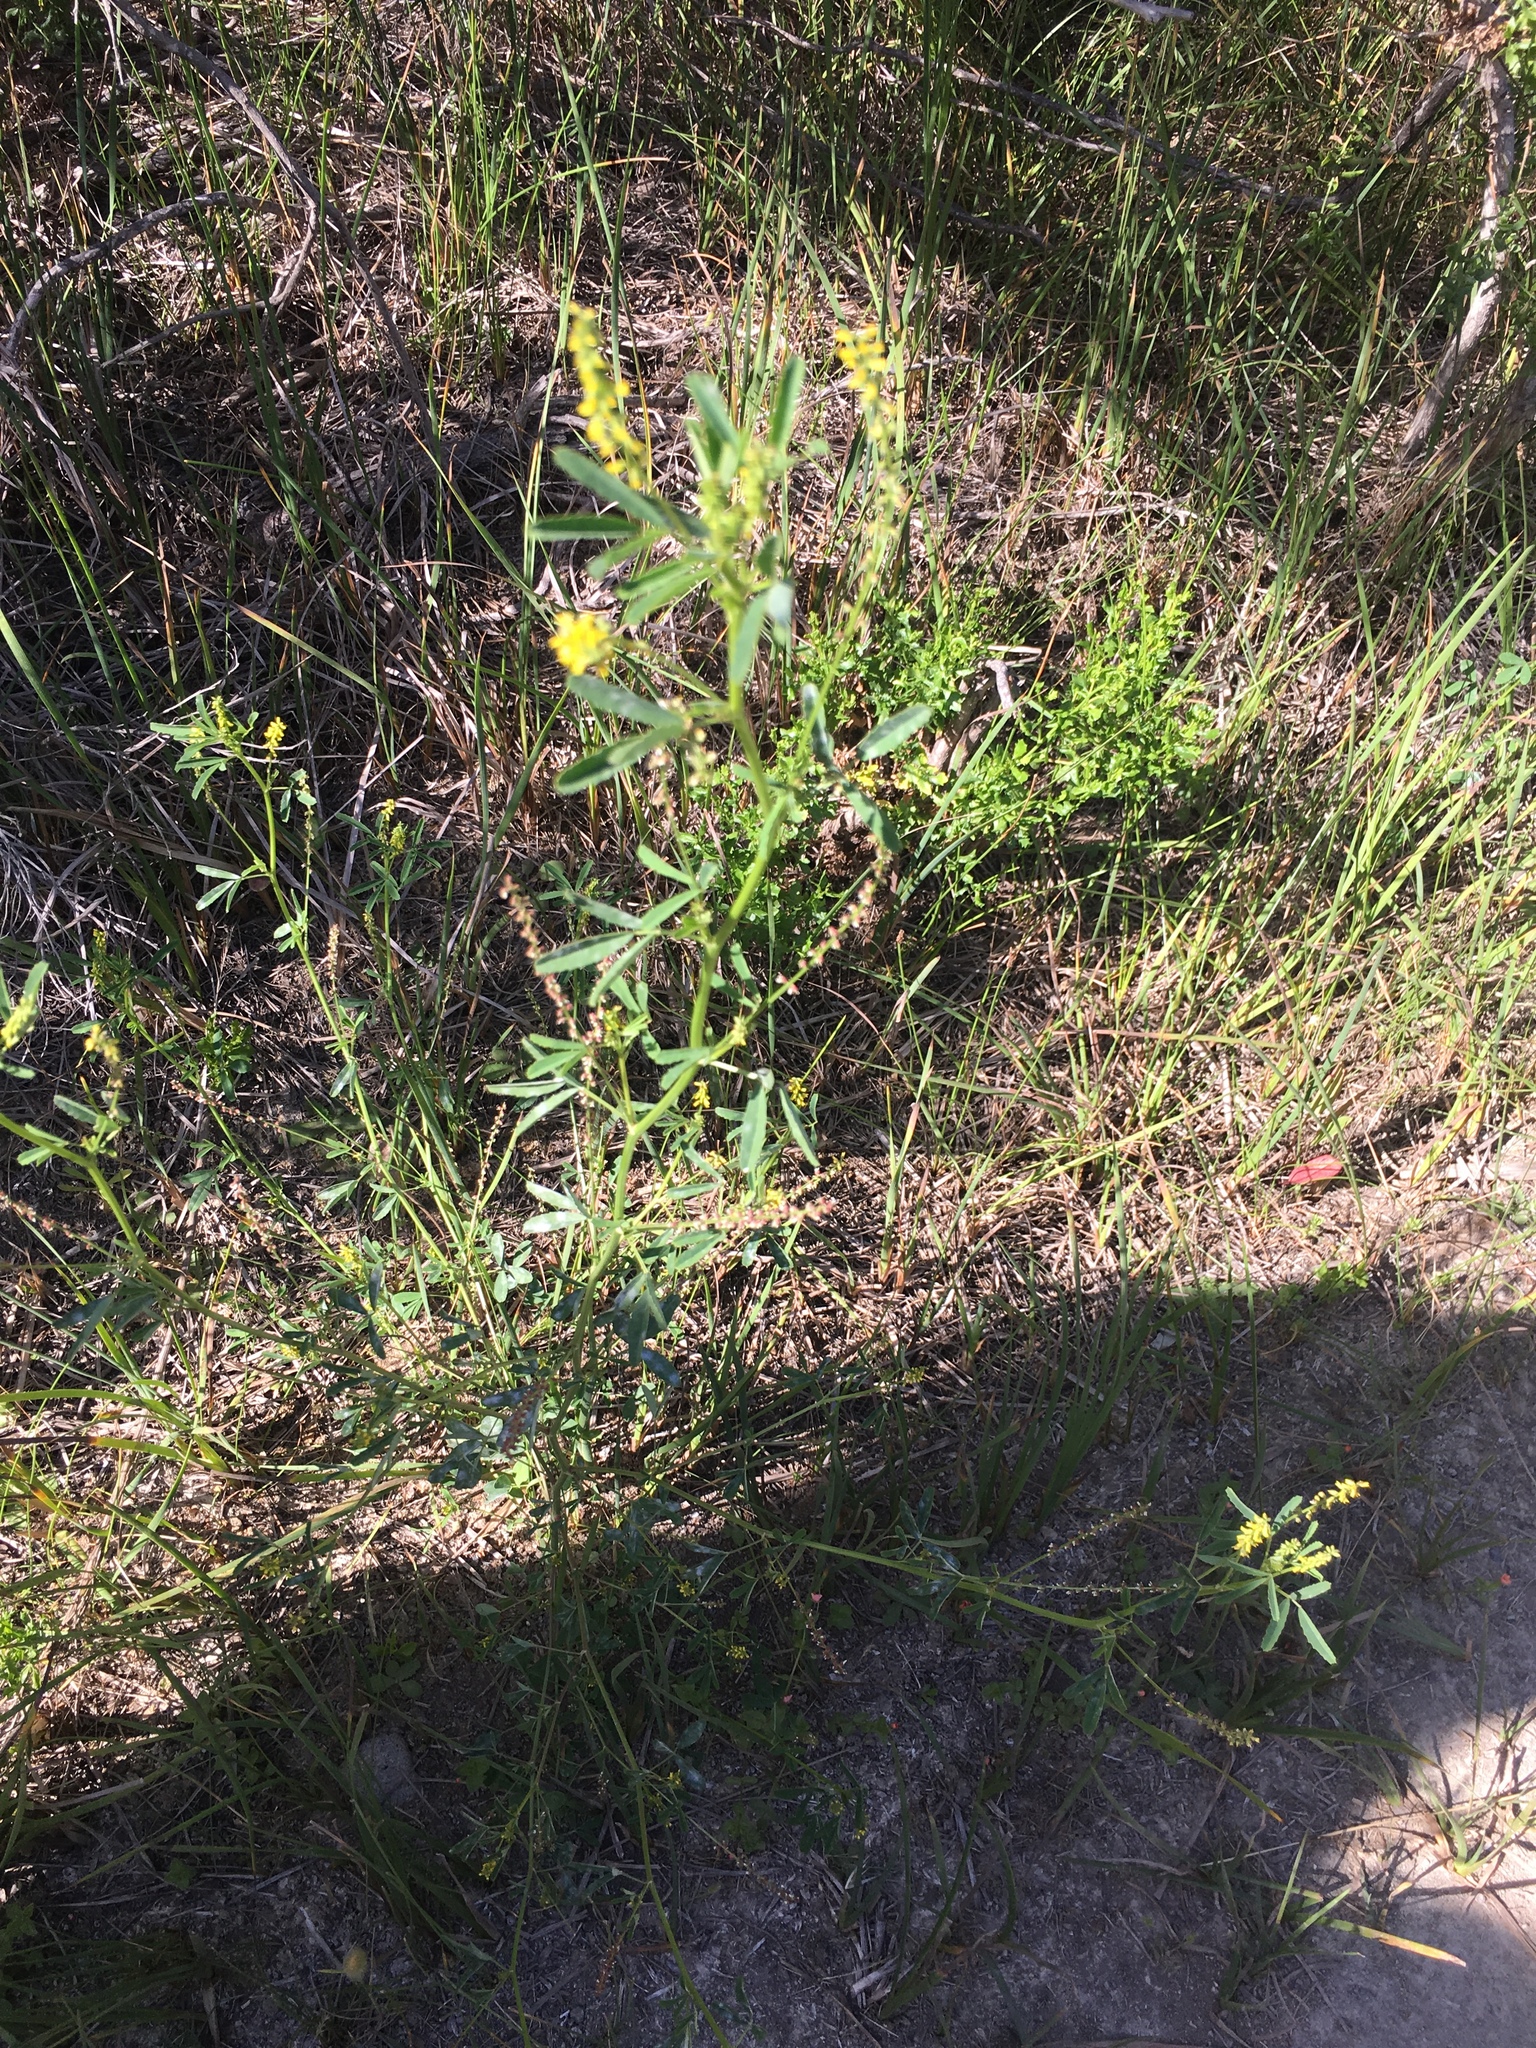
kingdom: Plantae
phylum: Tracheophyta
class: Magnoliopsida
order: Fabales
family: Fabaceae
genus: Melilotus
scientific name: Melilotus indicus
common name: Small melilot
